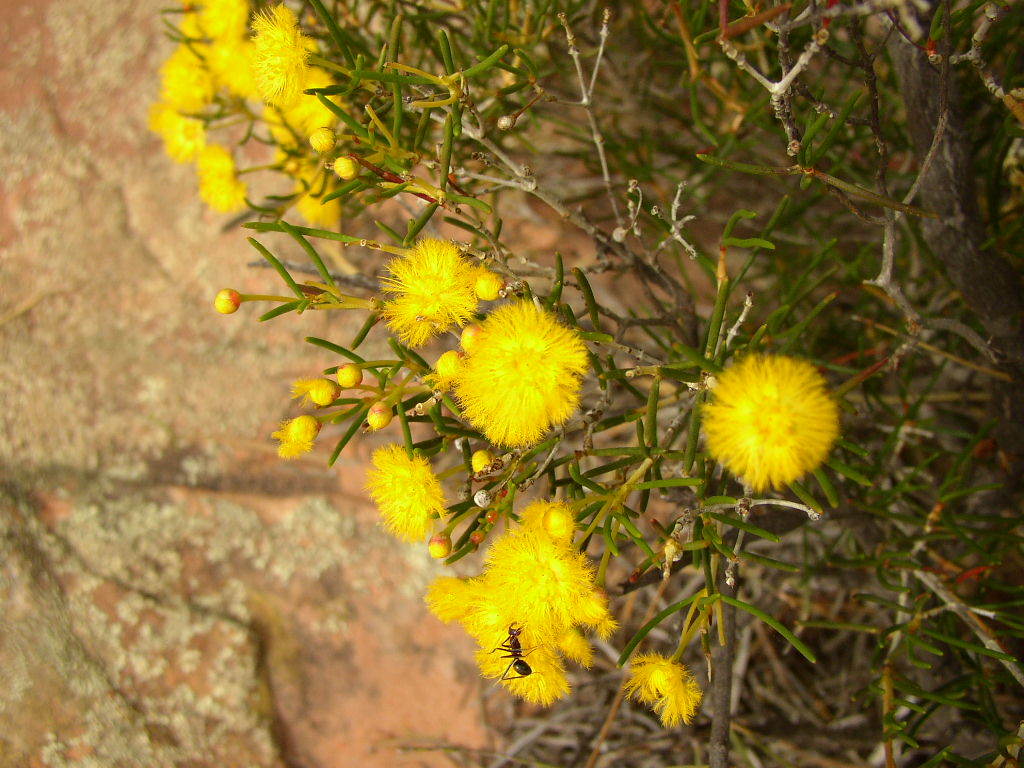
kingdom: Plantae
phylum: Tracheophyta
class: Magnoliopsida
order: Myrtales
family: Myrtaceae
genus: Verticordia
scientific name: Verticordia galeata
